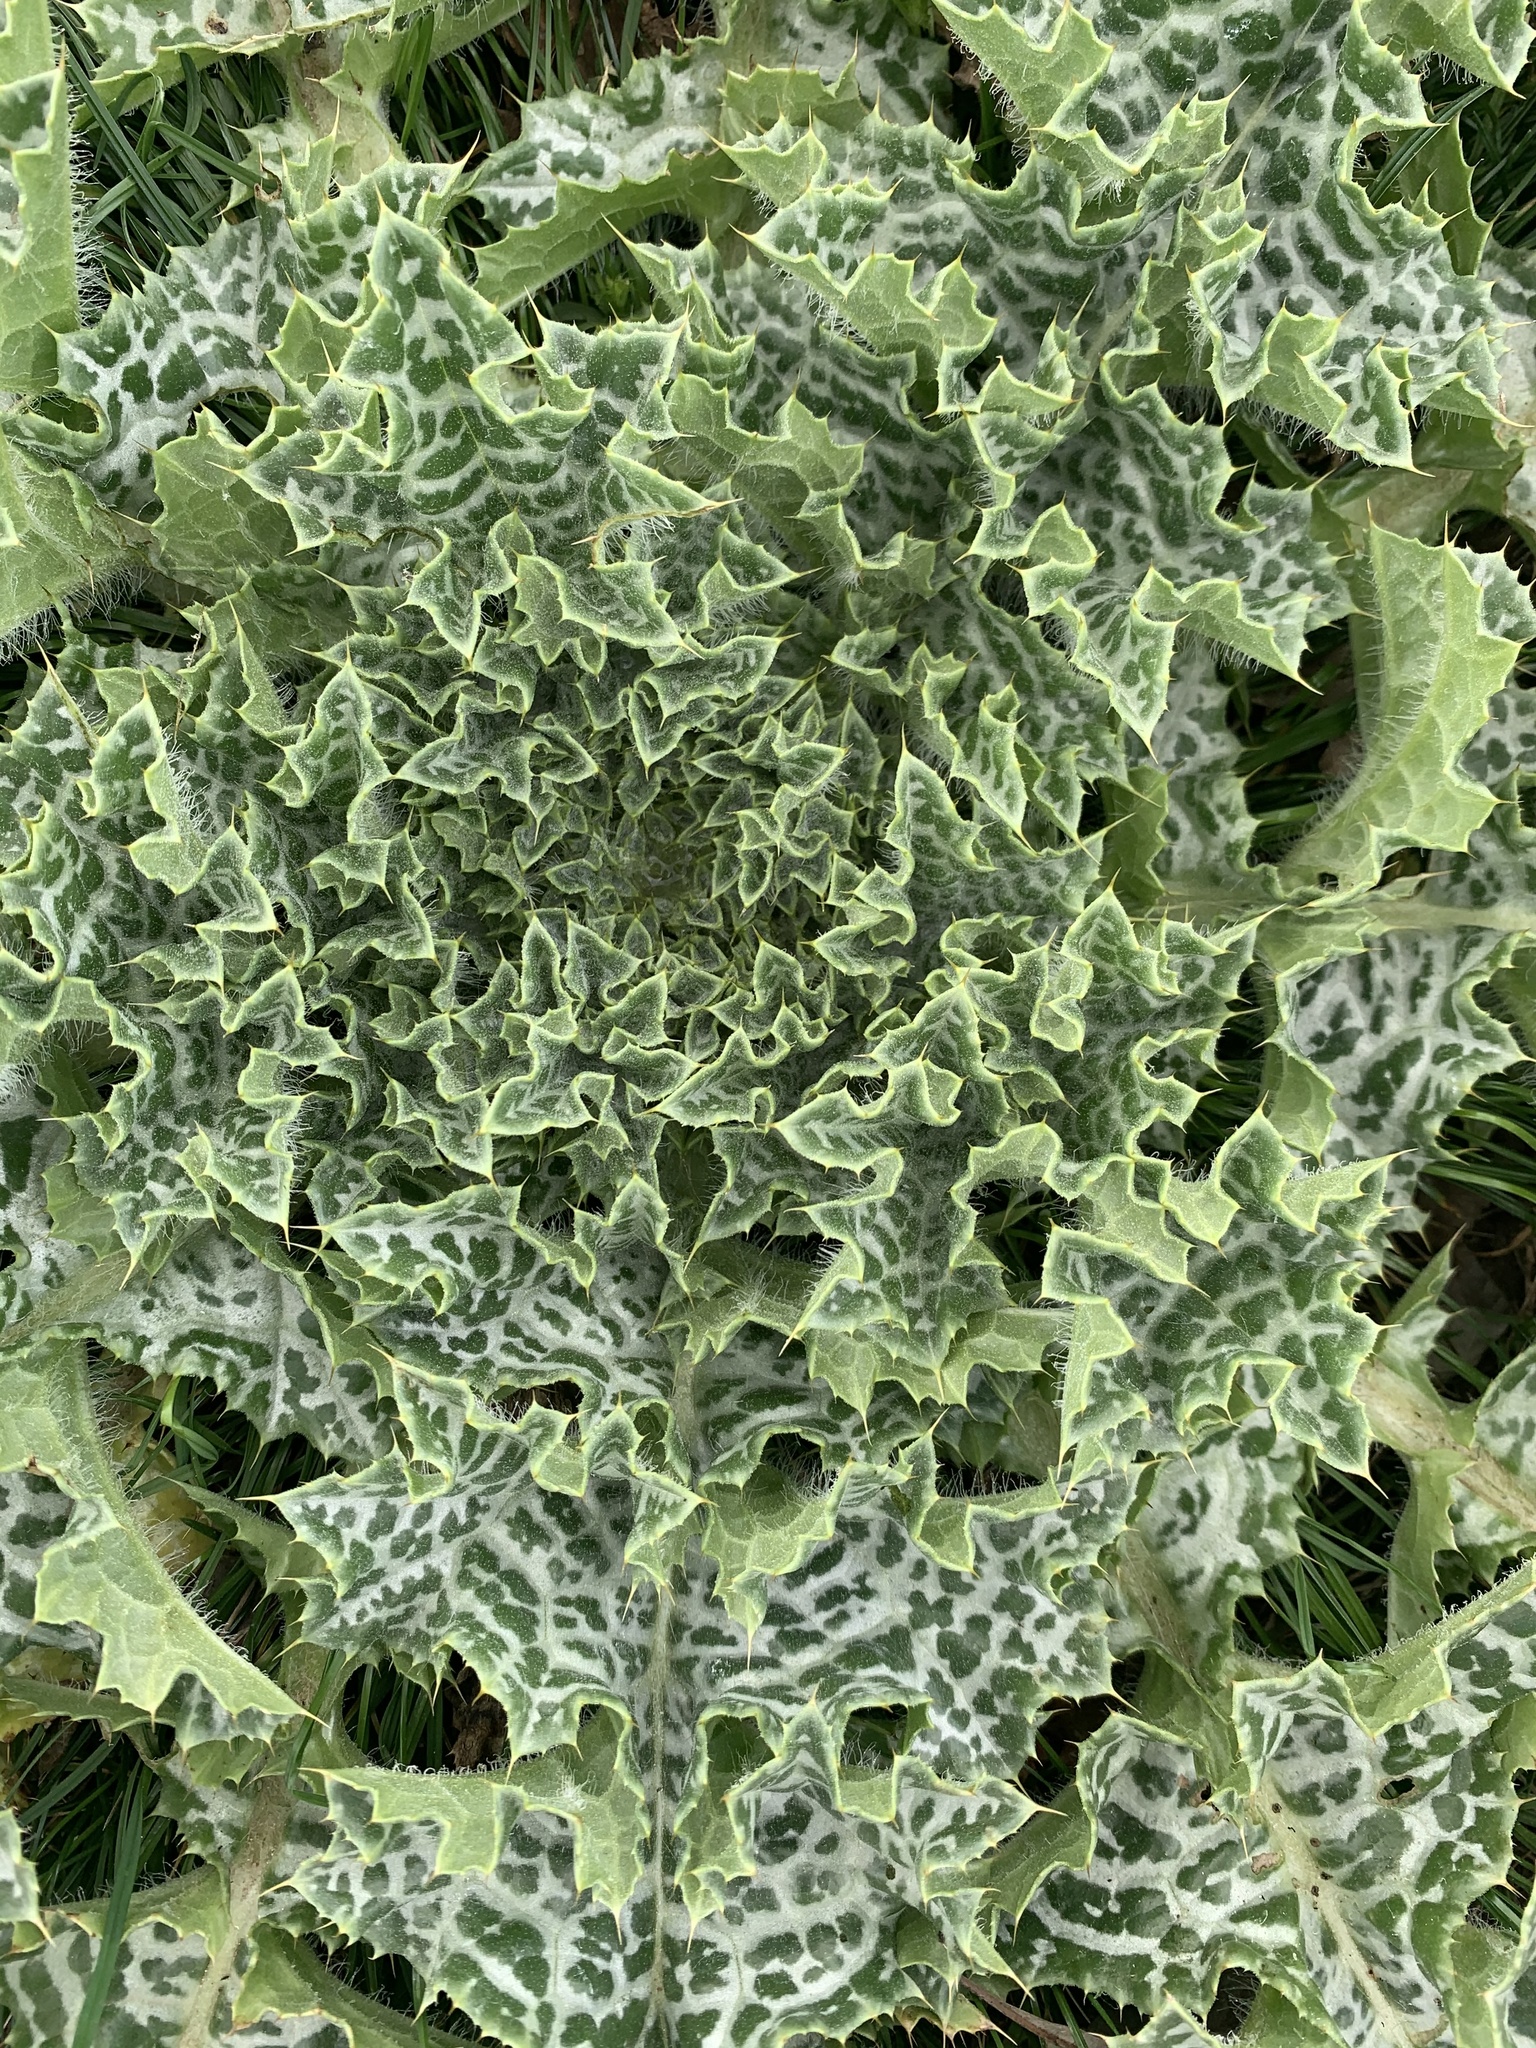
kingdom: Plantae
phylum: Tracheophyta
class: Magnoliopsida
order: Asterales
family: Asteraceae
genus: Silybum
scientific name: Silybum marianum
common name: Milk thistle
